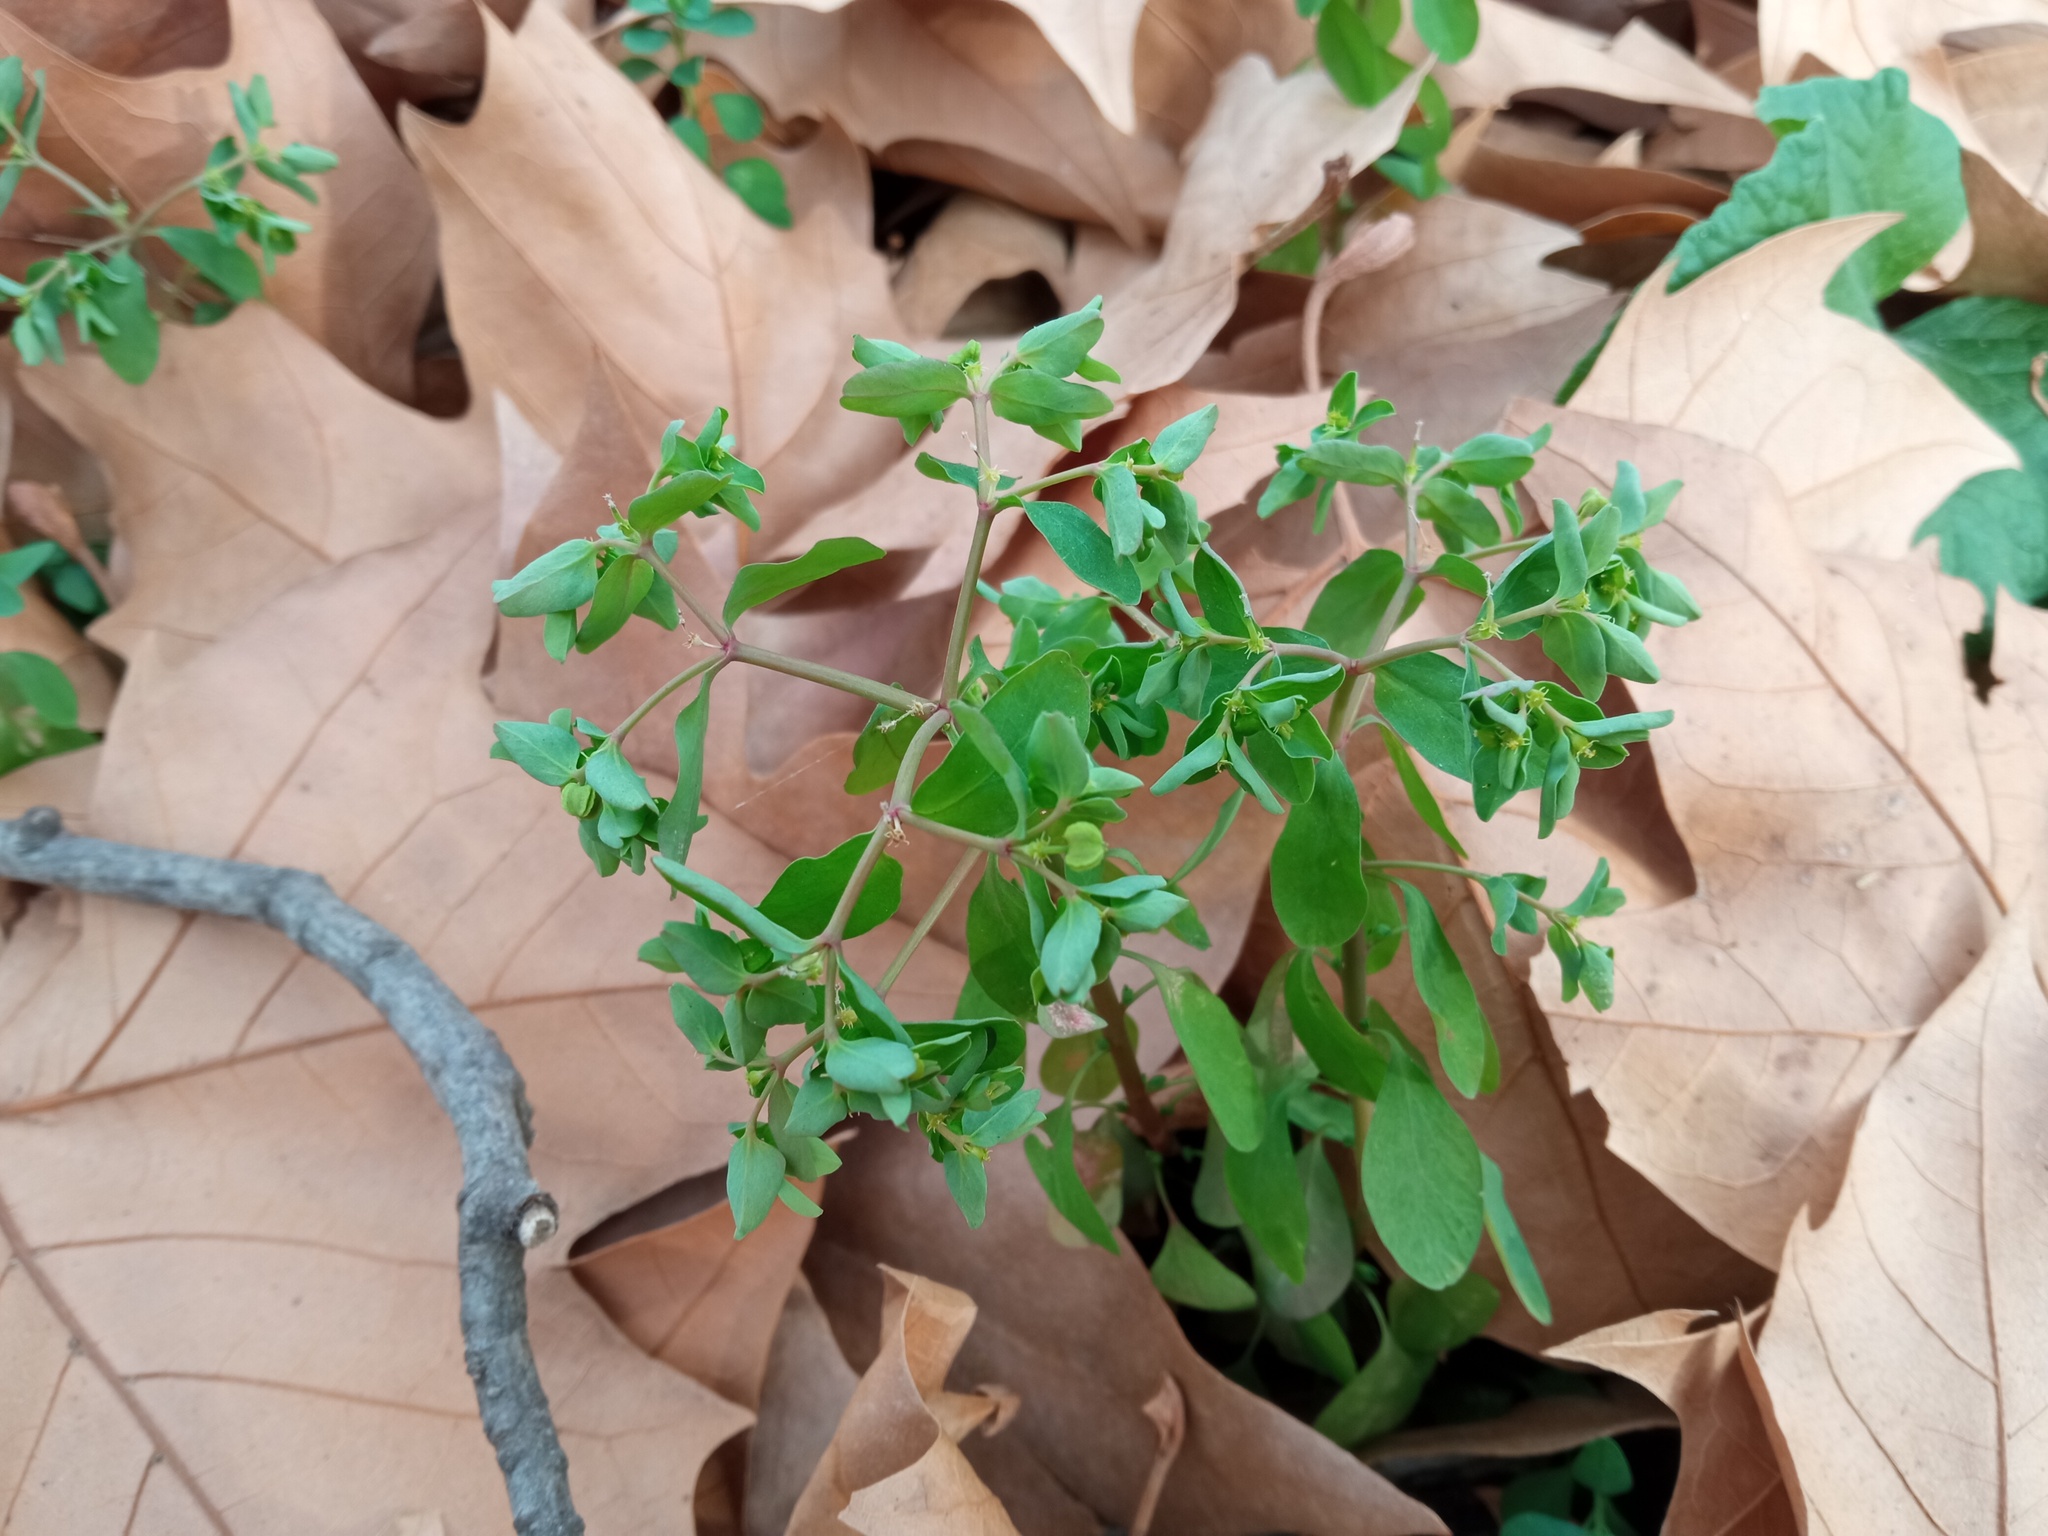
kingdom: Plantae
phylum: Tracheophyta
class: Magnoliopsida
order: Malpighiales
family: Euphorbiaceae
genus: Euphorbia
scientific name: Euphorbia peplus
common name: Petty spurge
